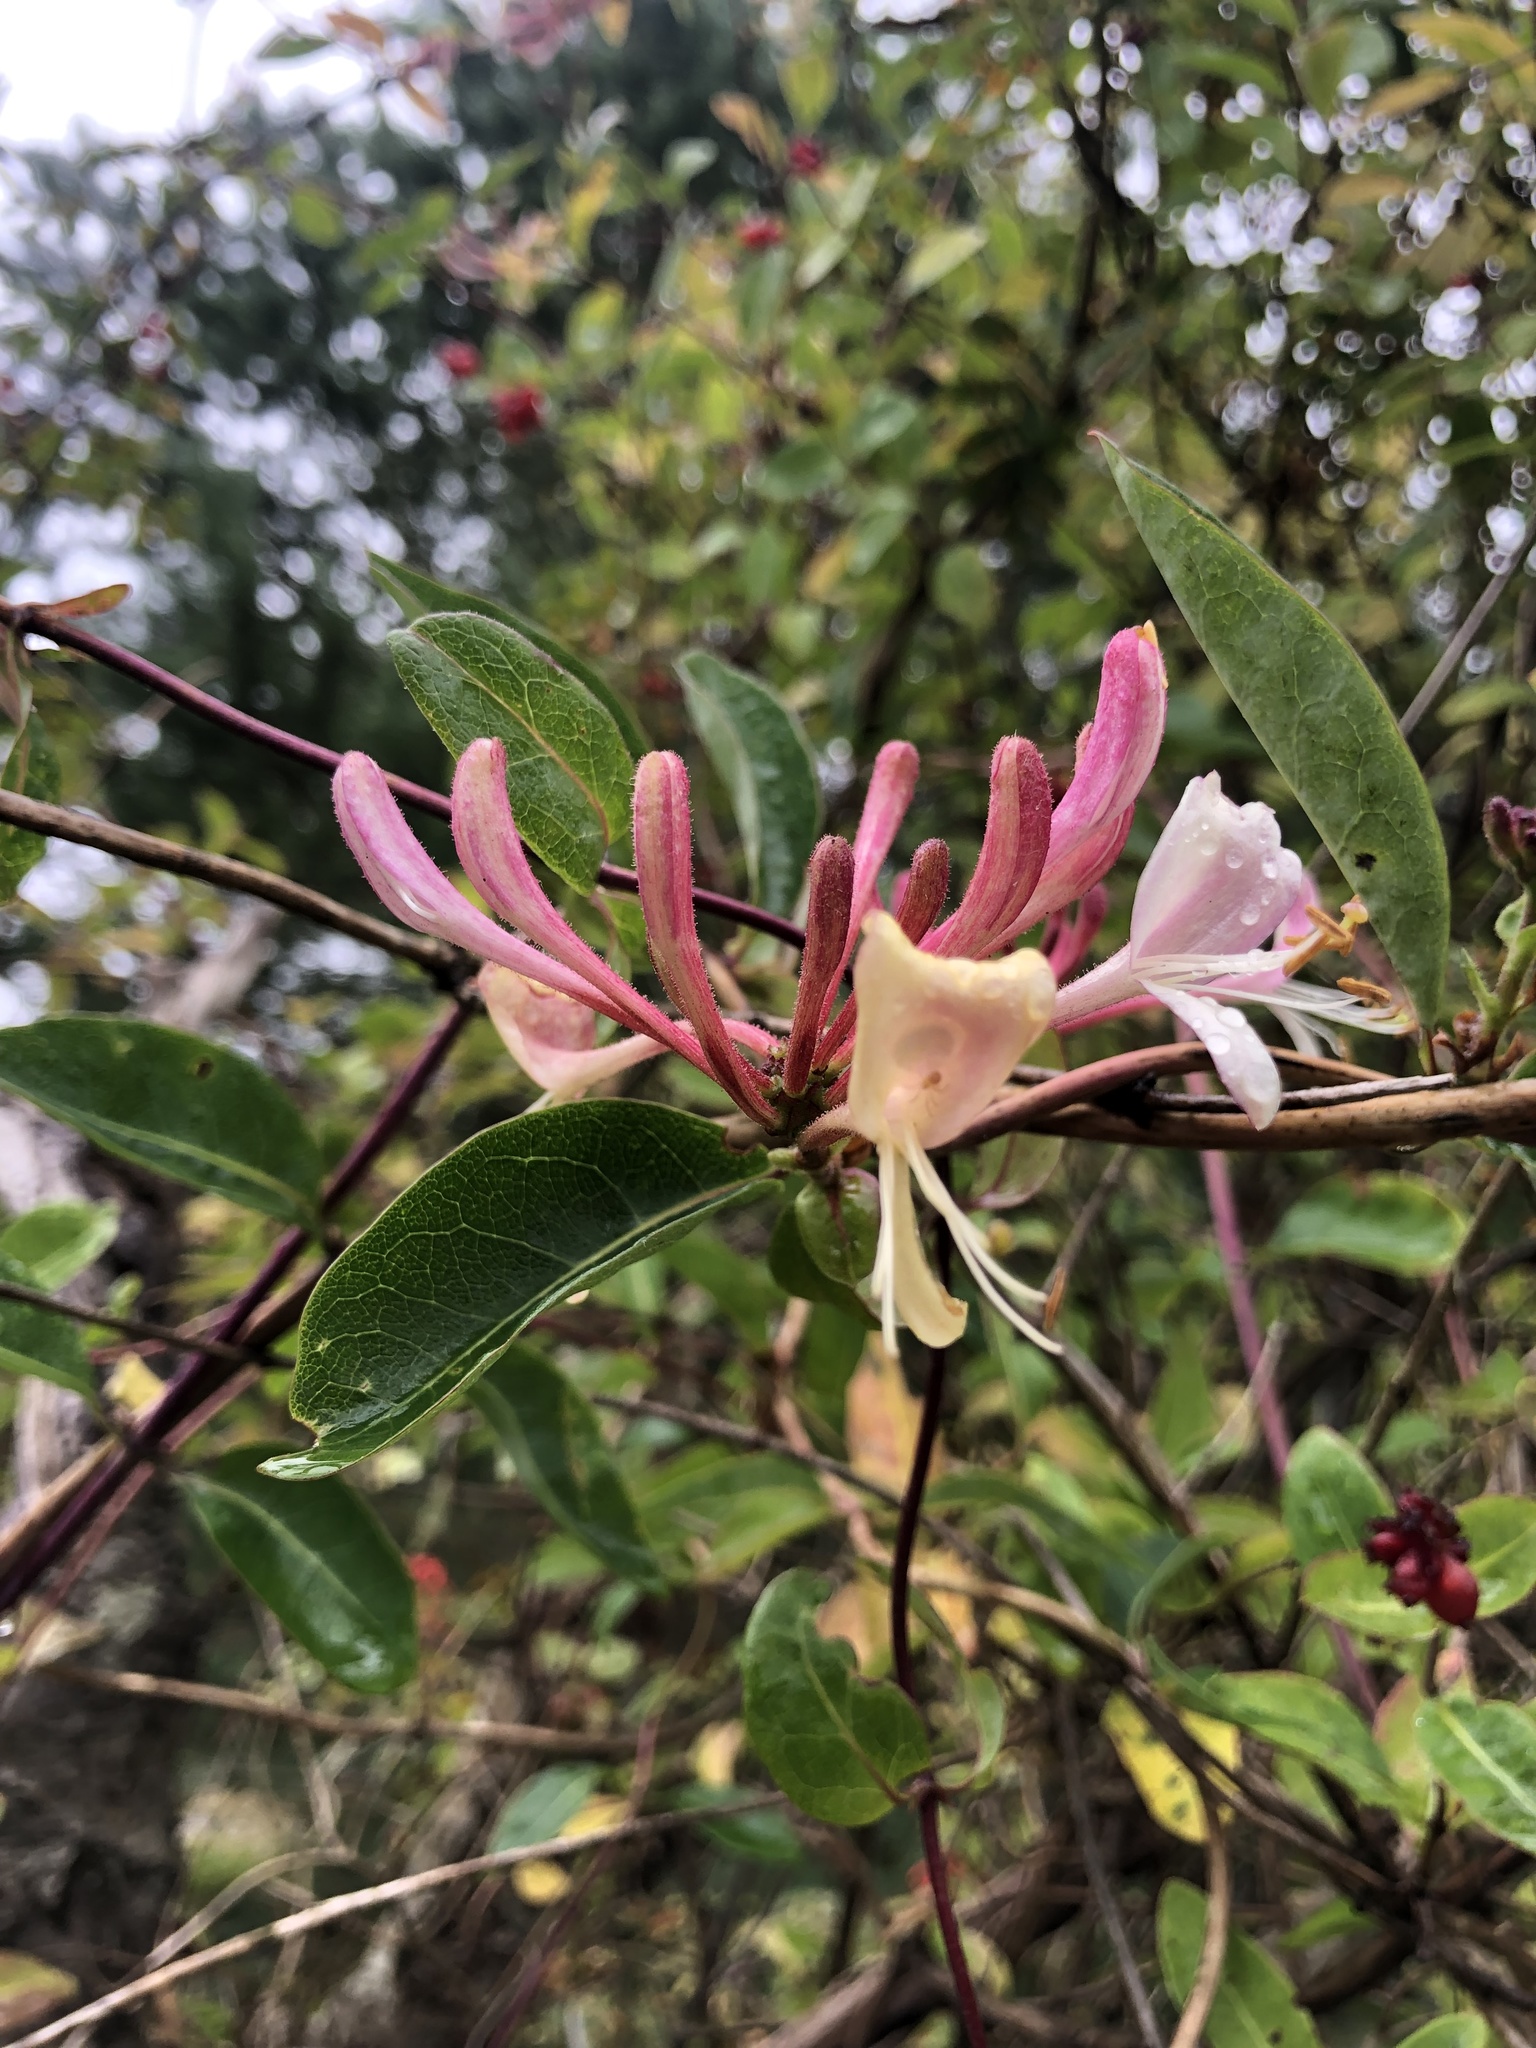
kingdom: Plantae
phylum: Tracheophyta
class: Magnoliopsida
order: Dipsacales
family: Caprifoliaceae
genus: Lonicera
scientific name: Lonicera periclymenum
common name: European honeysuckle
